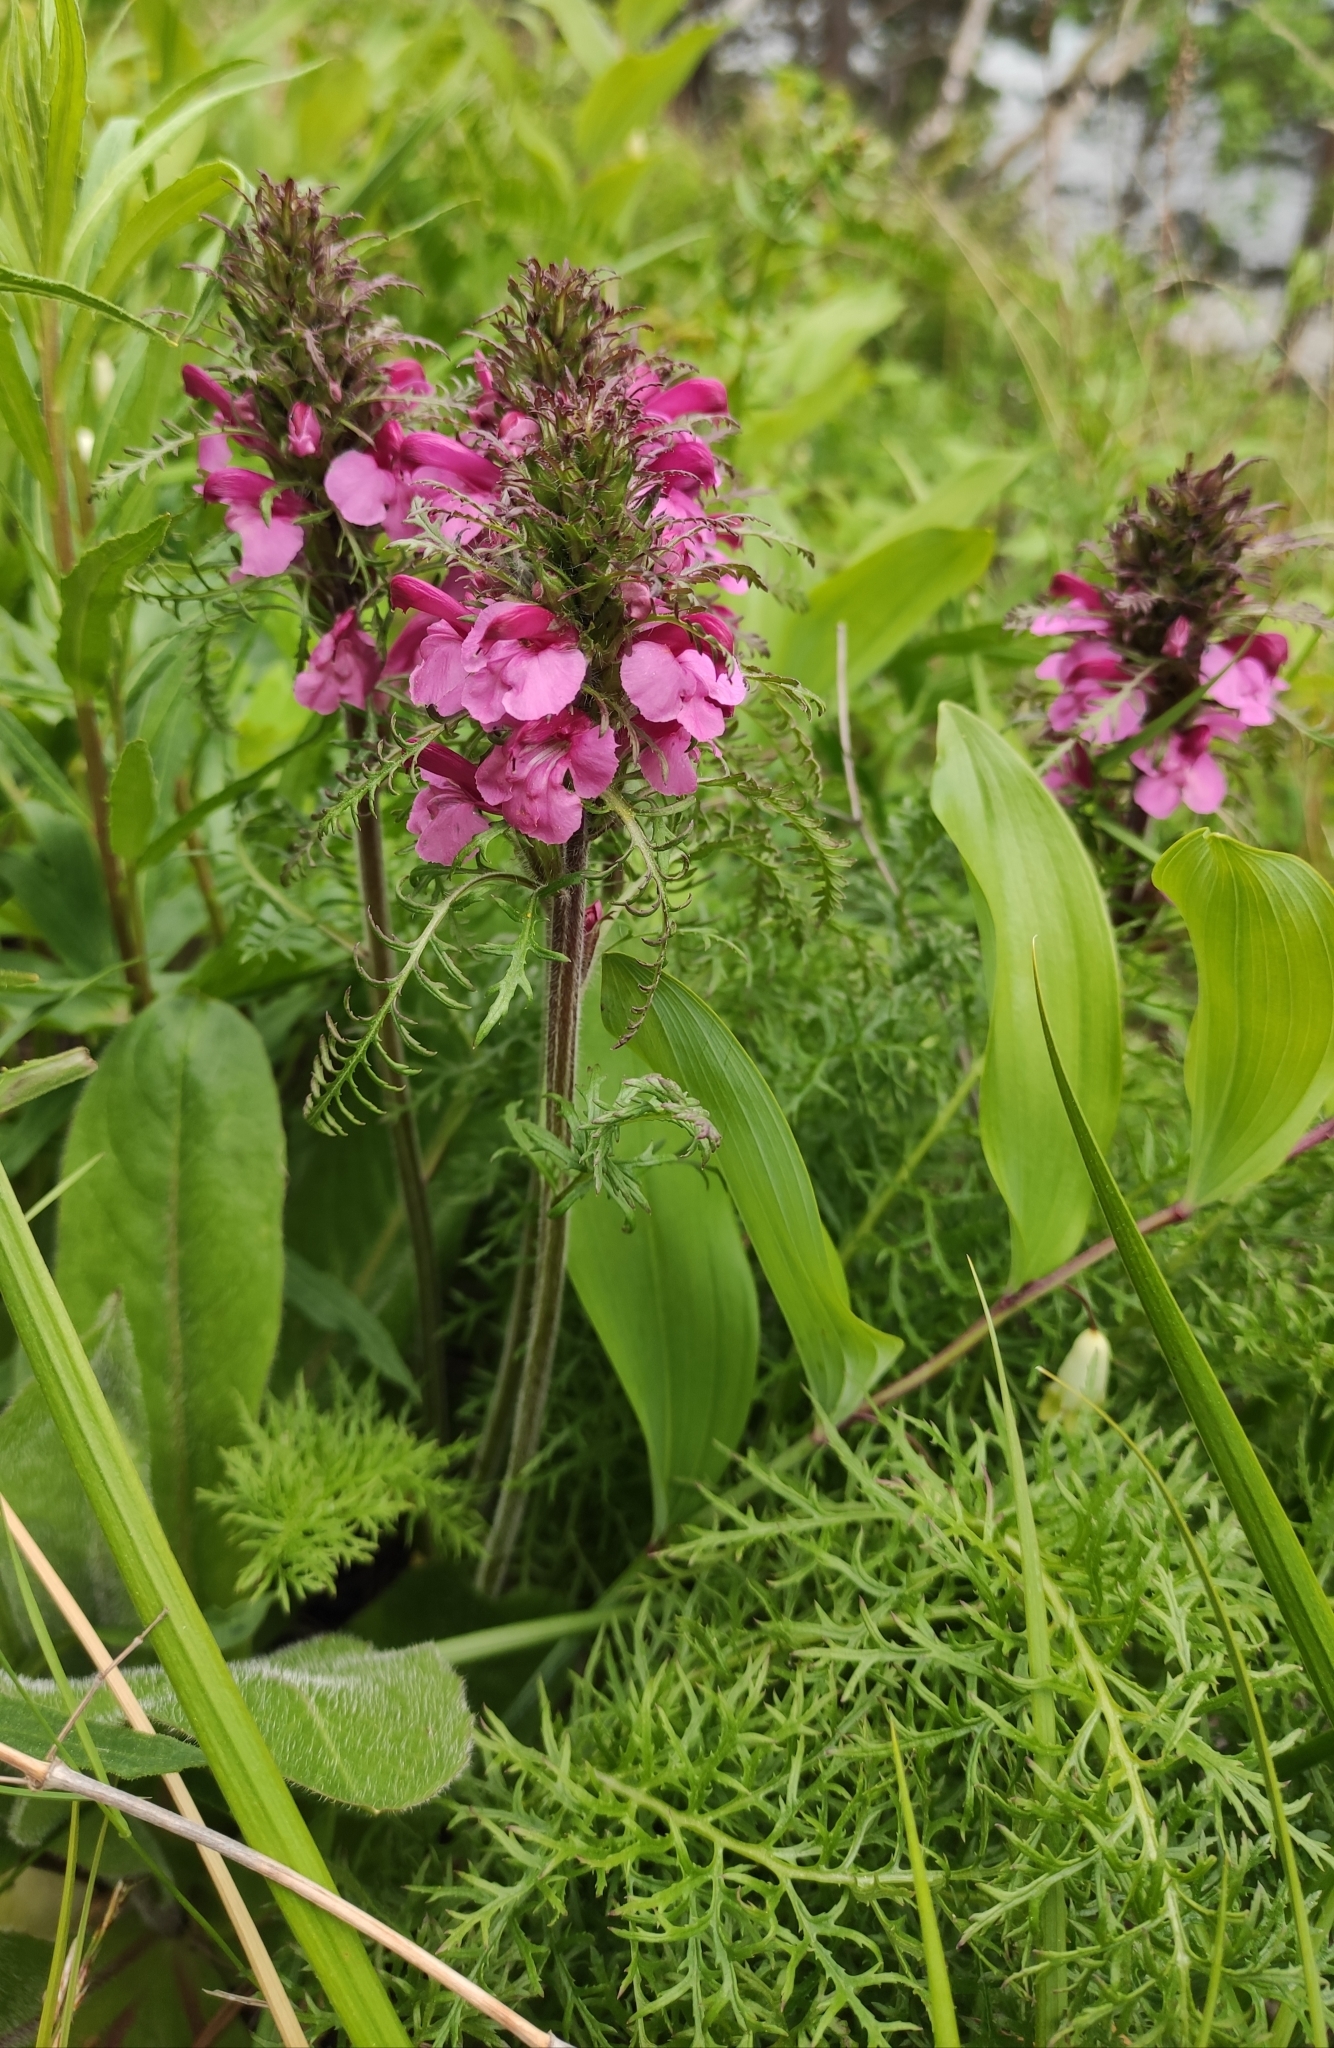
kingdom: Plantae
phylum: Tracheophyta
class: Magnoliopsida
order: Lamiales
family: Orobanchaceae
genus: Pedicularis
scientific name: Pedicularis rubens
